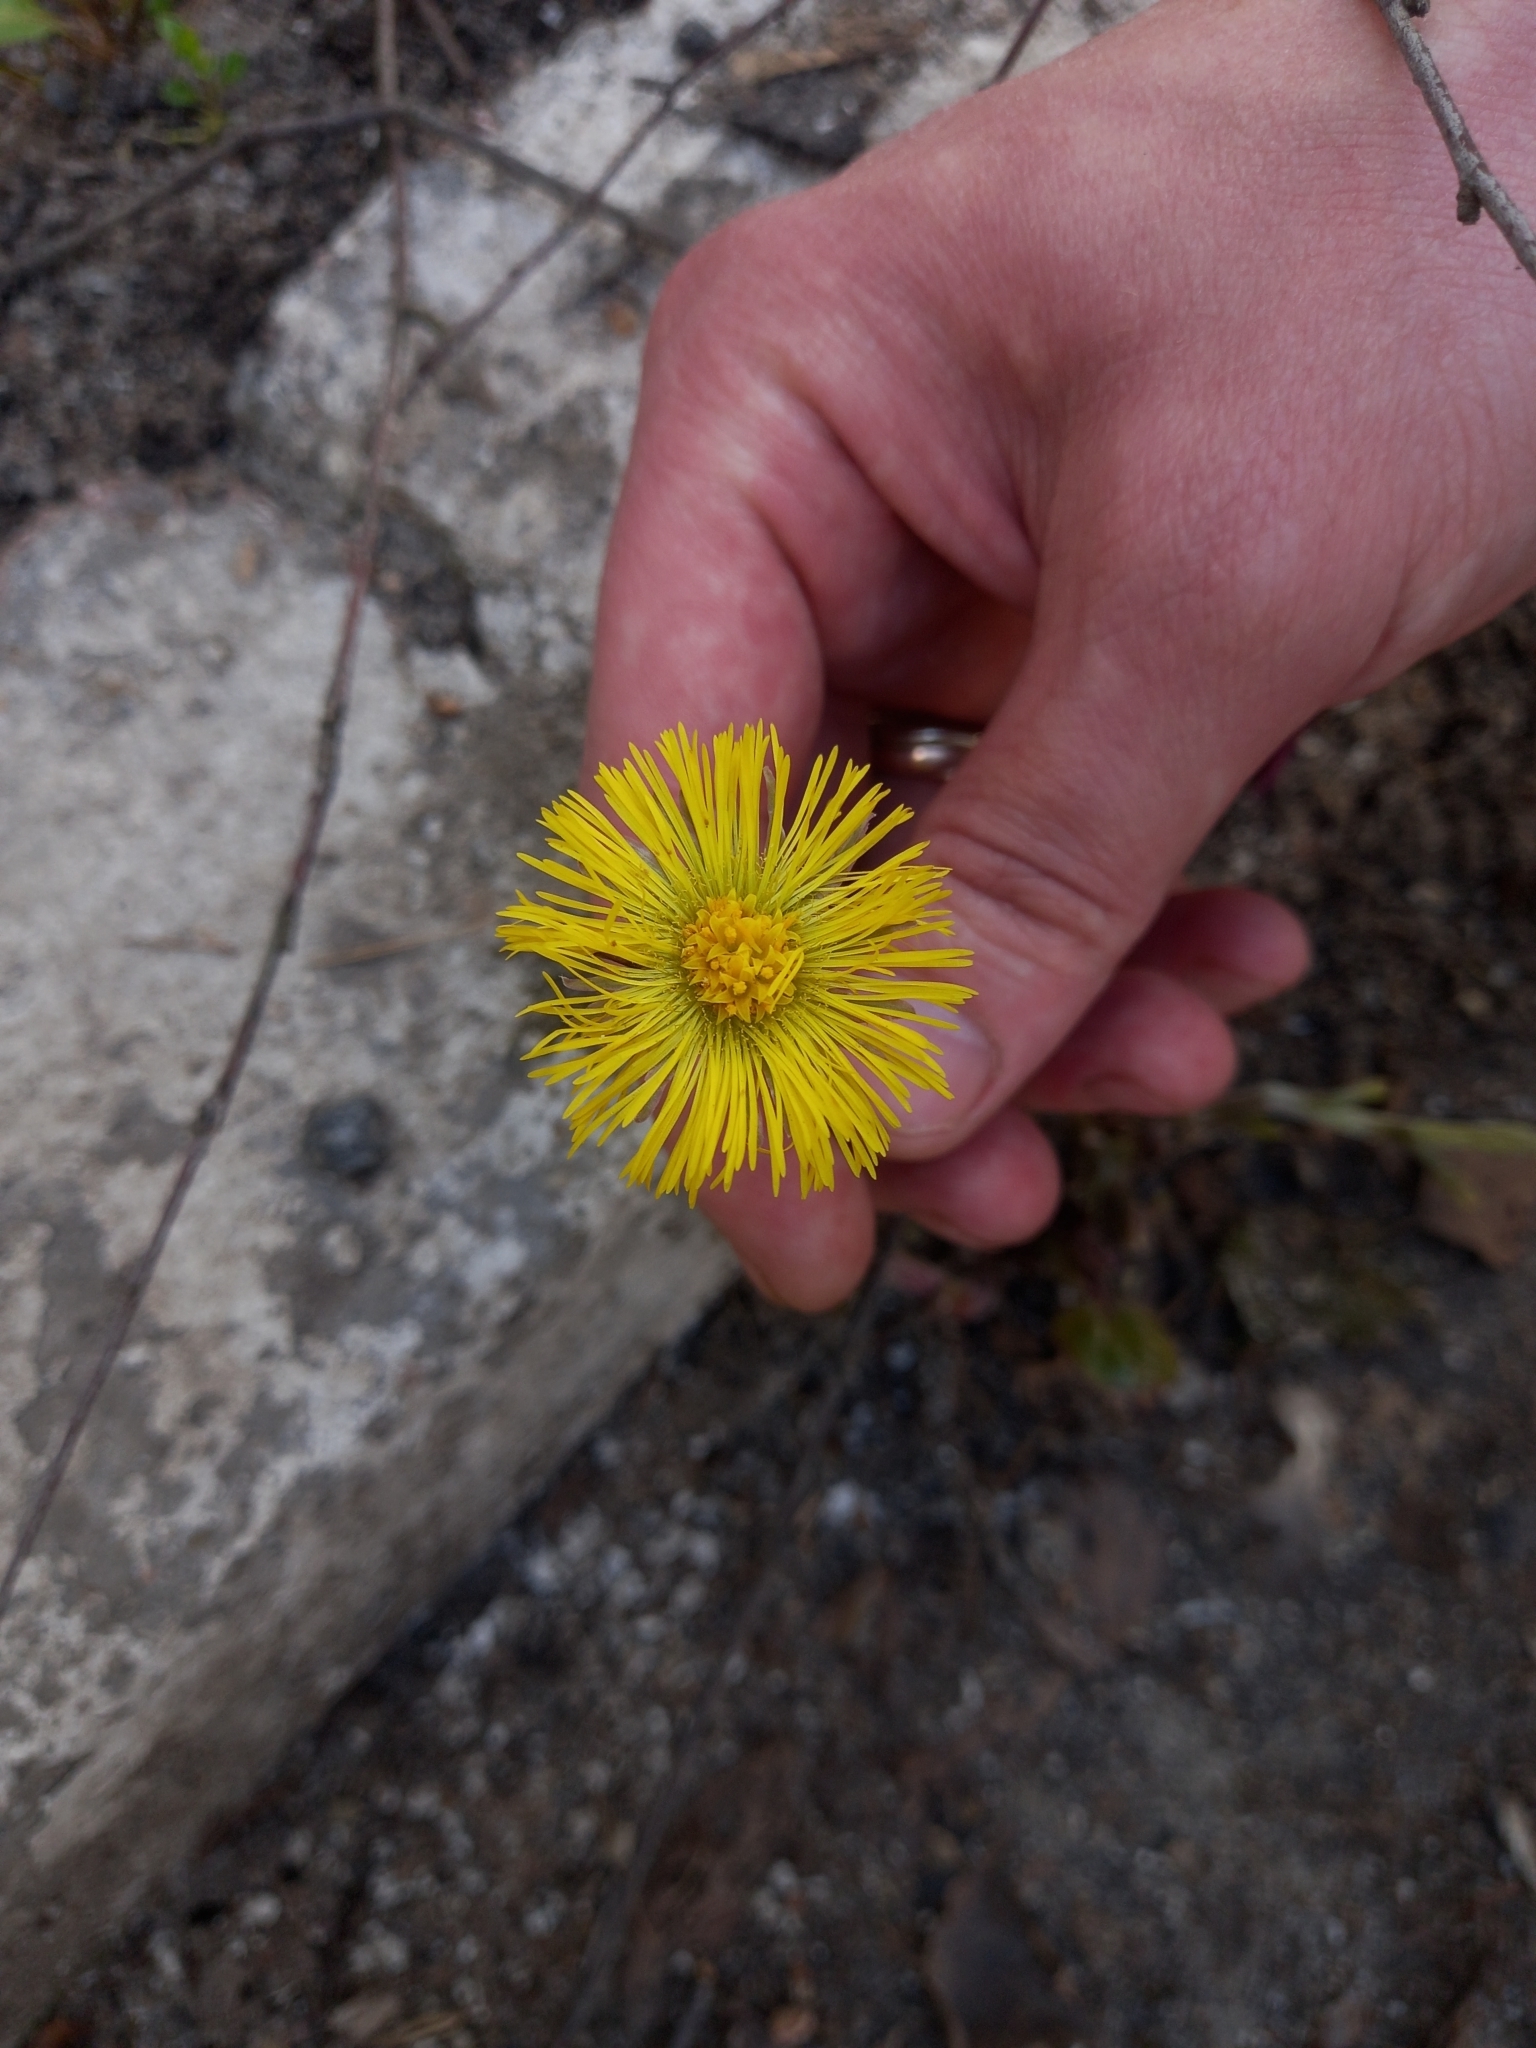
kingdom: Plantae
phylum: Tracheophyta
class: Magnoliopsida
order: Asterales
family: Asteraceae
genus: Tussilago
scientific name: Tussilago farfara
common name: Coltsfoot
